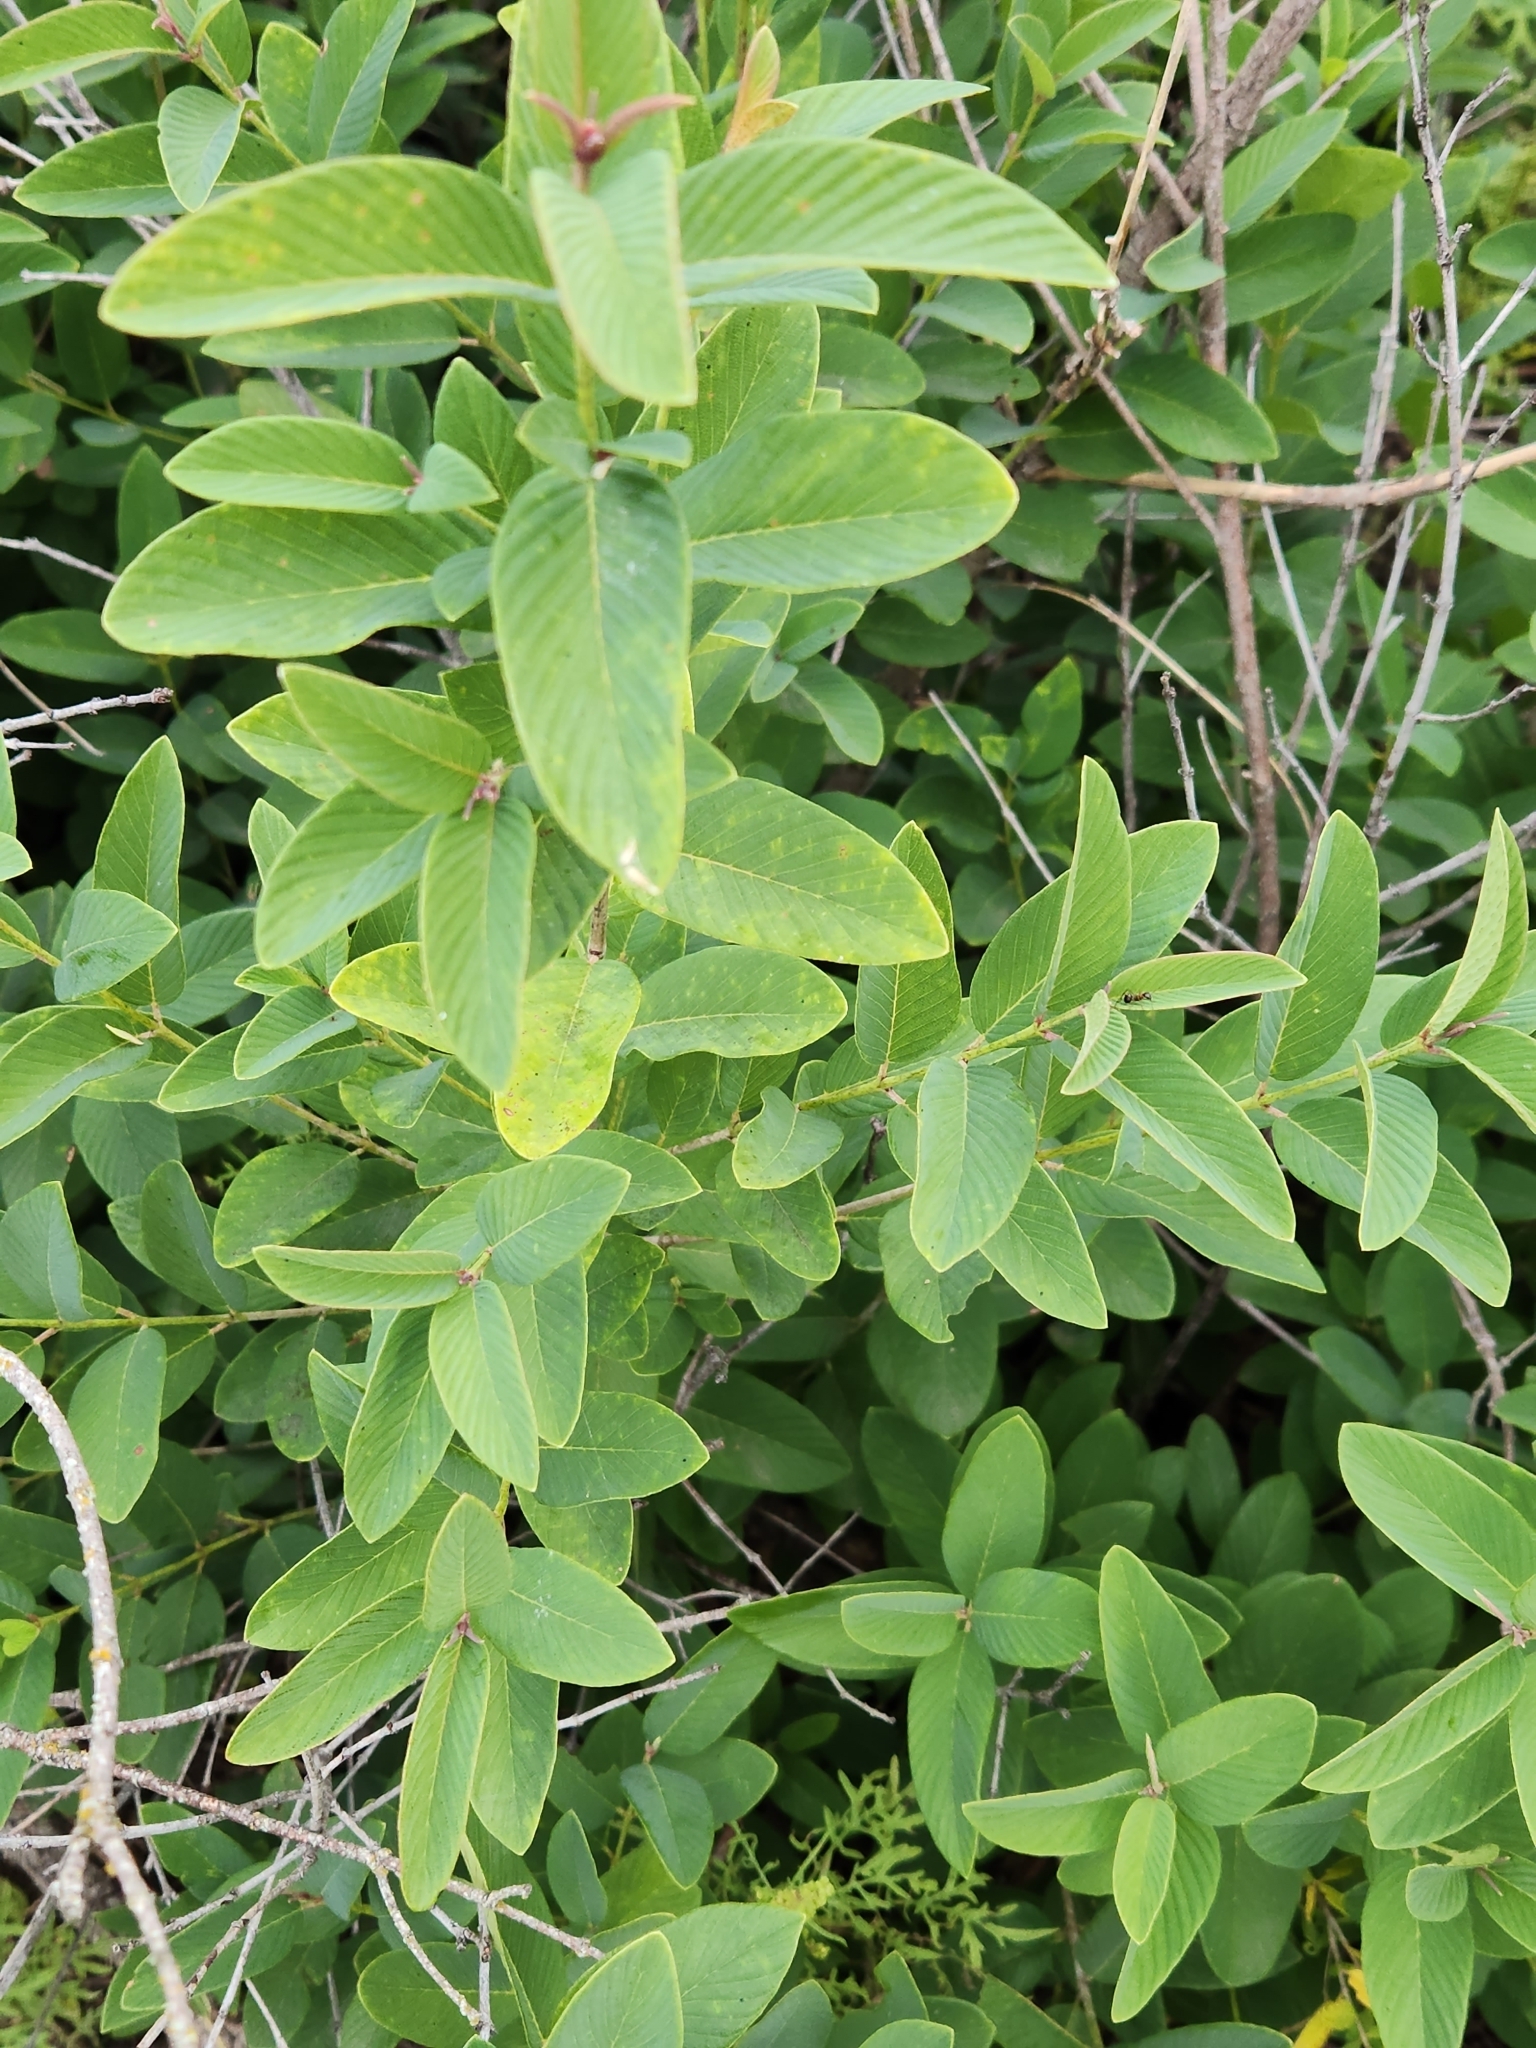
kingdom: Plantae
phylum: Tracheophyta
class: Magnoliopsida
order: Rosales
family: Rhamnaceae
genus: Karwinskia
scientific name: Karwinskia humboldtiana
